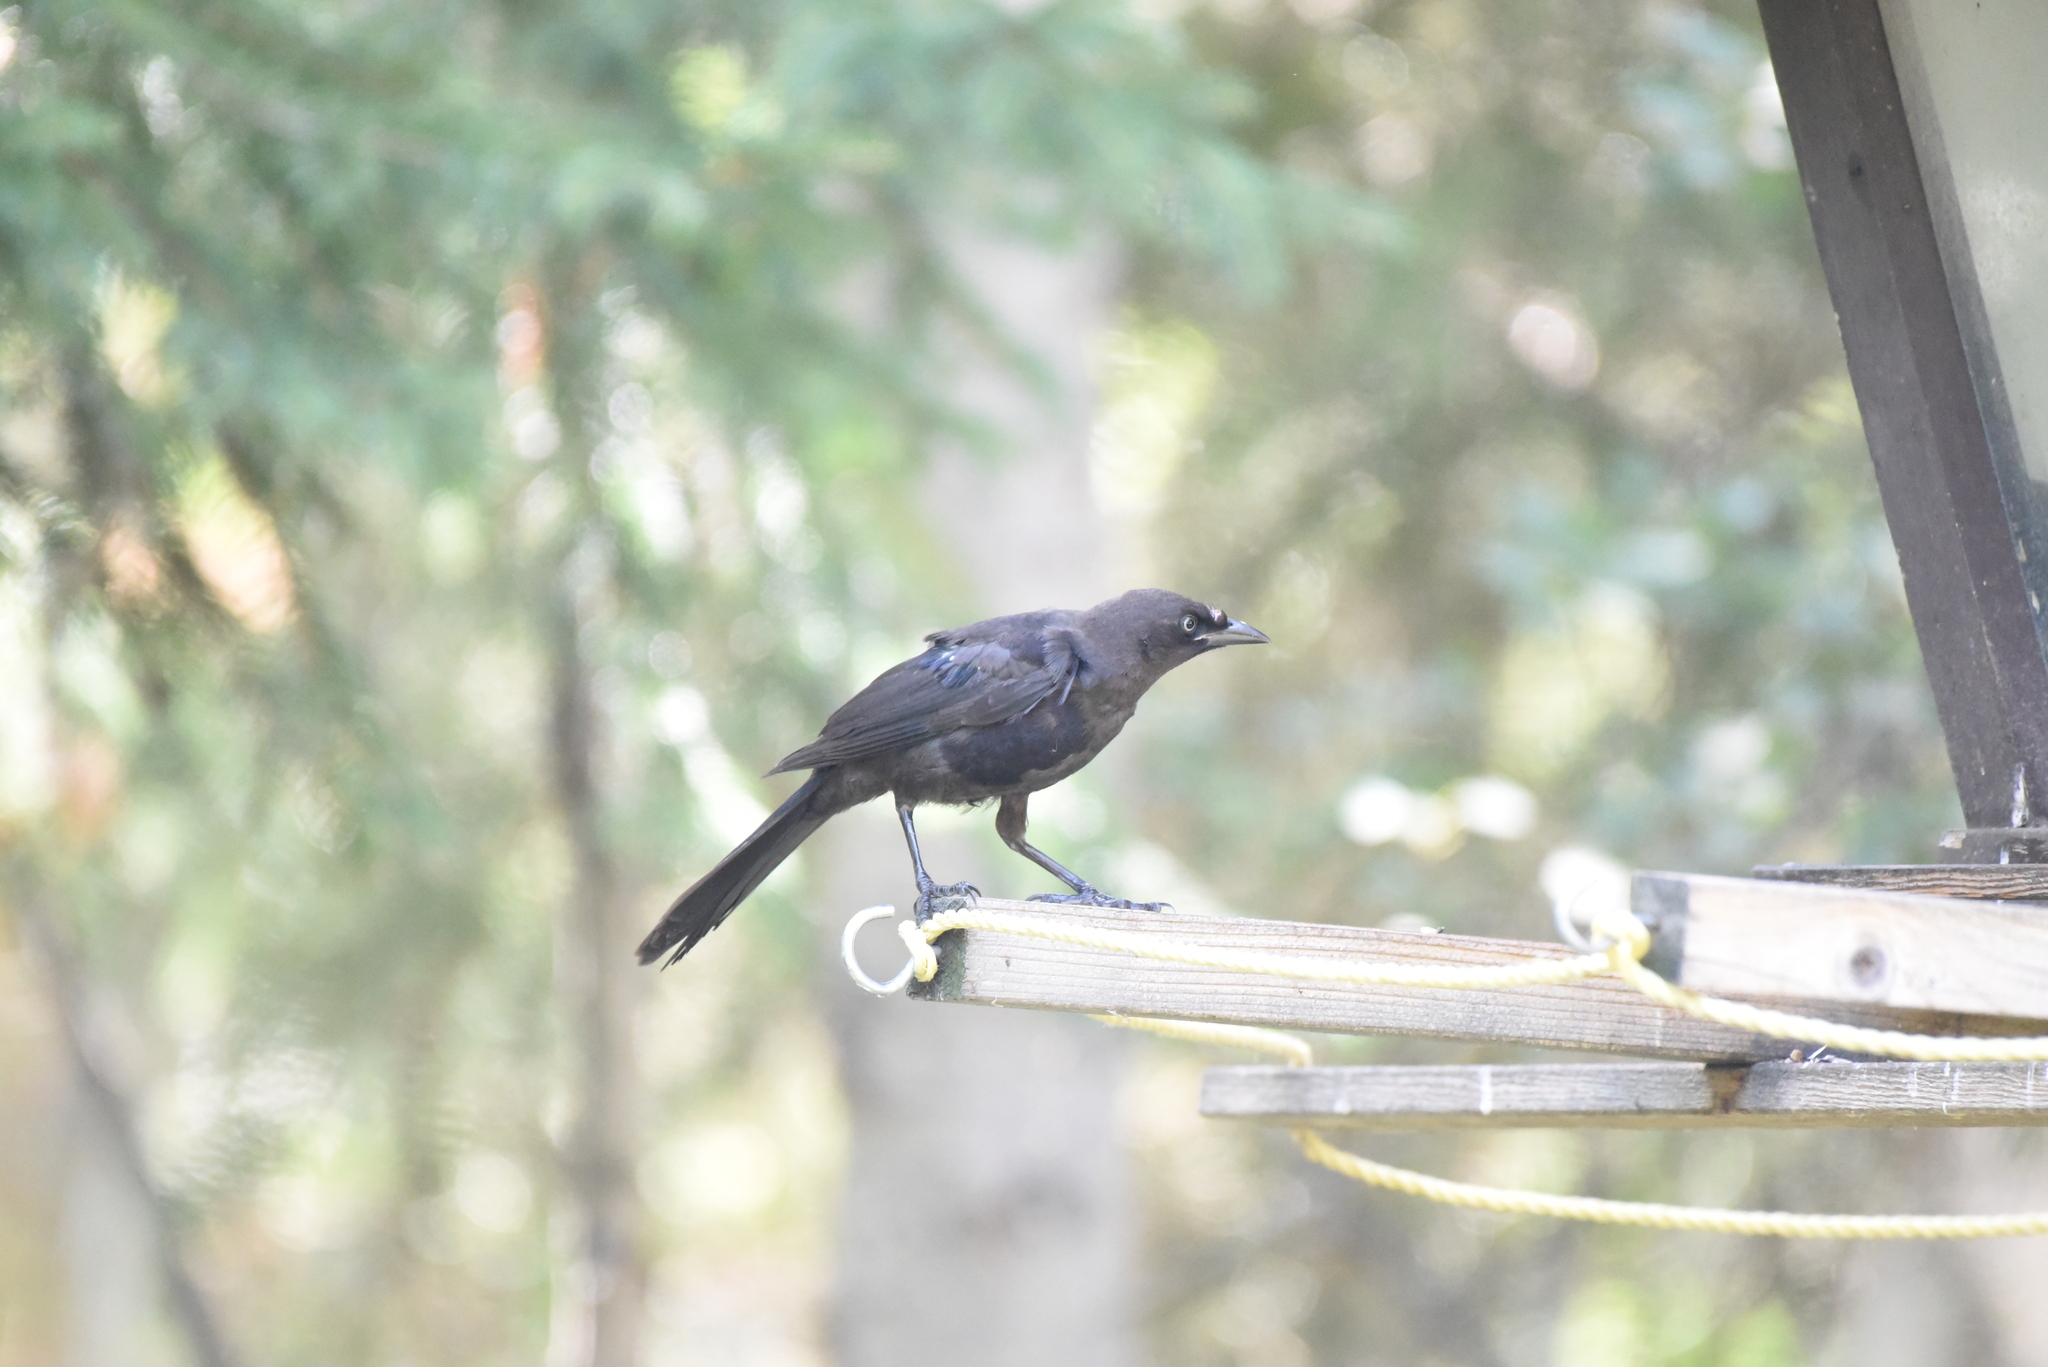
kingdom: Animalia
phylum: Chordata
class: Aves
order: Passeriformes
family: Icteridae
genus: Quiscalus
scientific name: Quiscalus quiscula
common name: Common grackle
